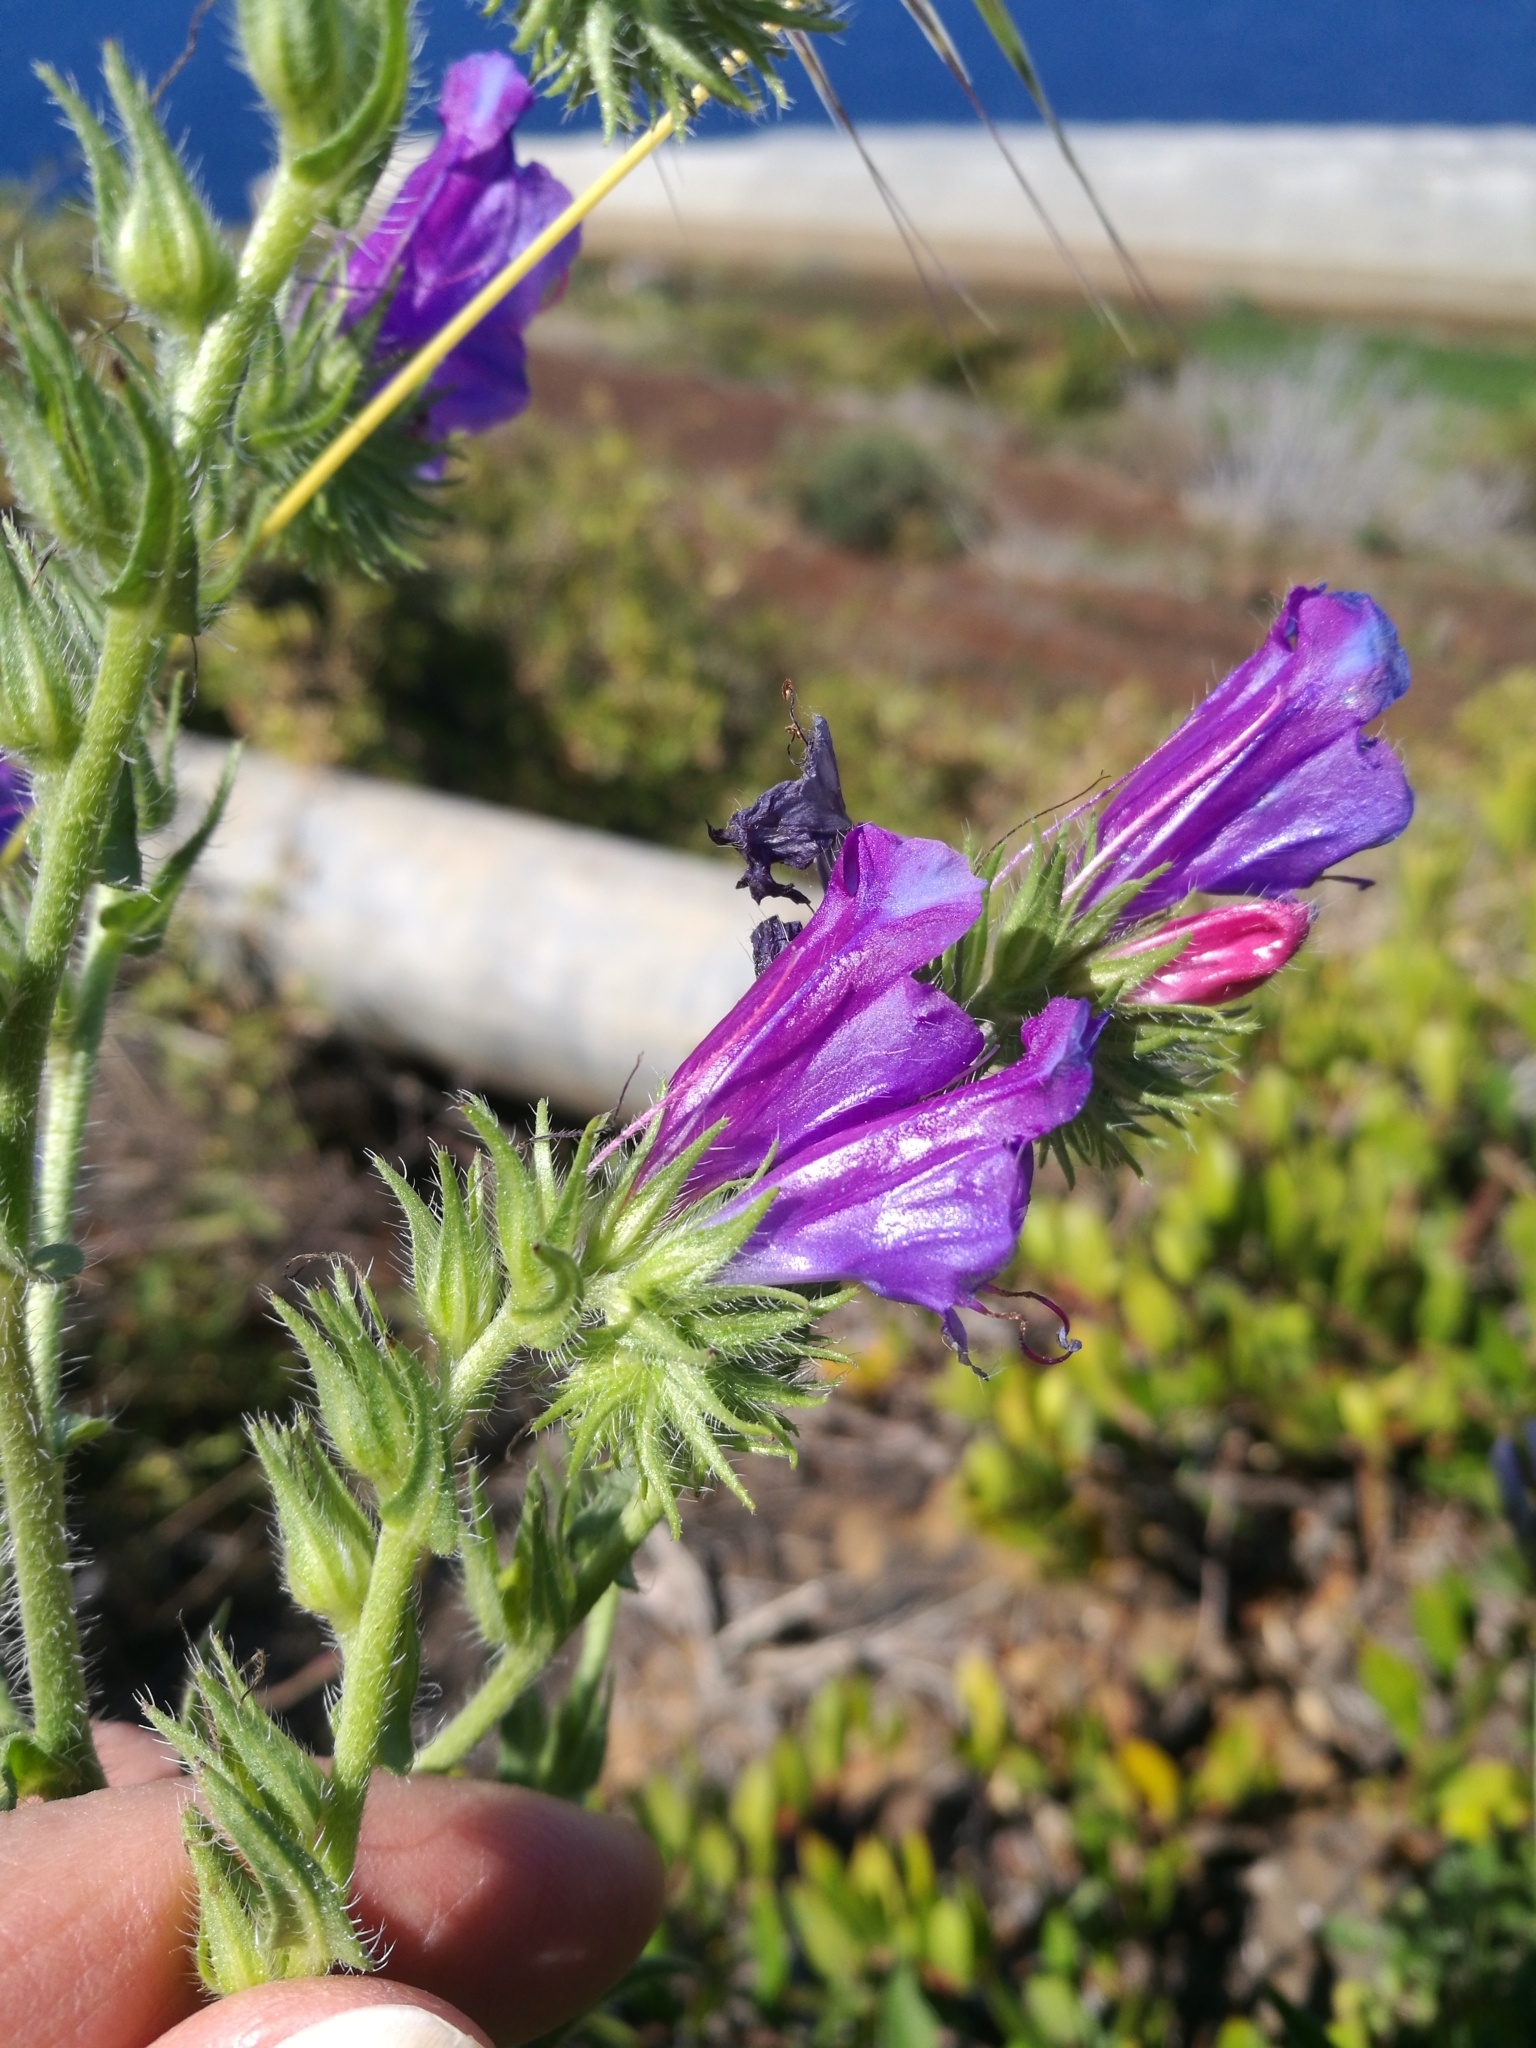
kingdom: Plantae
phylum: Tracheophyta
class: Magnoliopsida
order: Boraginales
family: Boraginaceae
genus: Echium
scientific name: Echium plantagineum
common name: Purple viper's-bugloss
